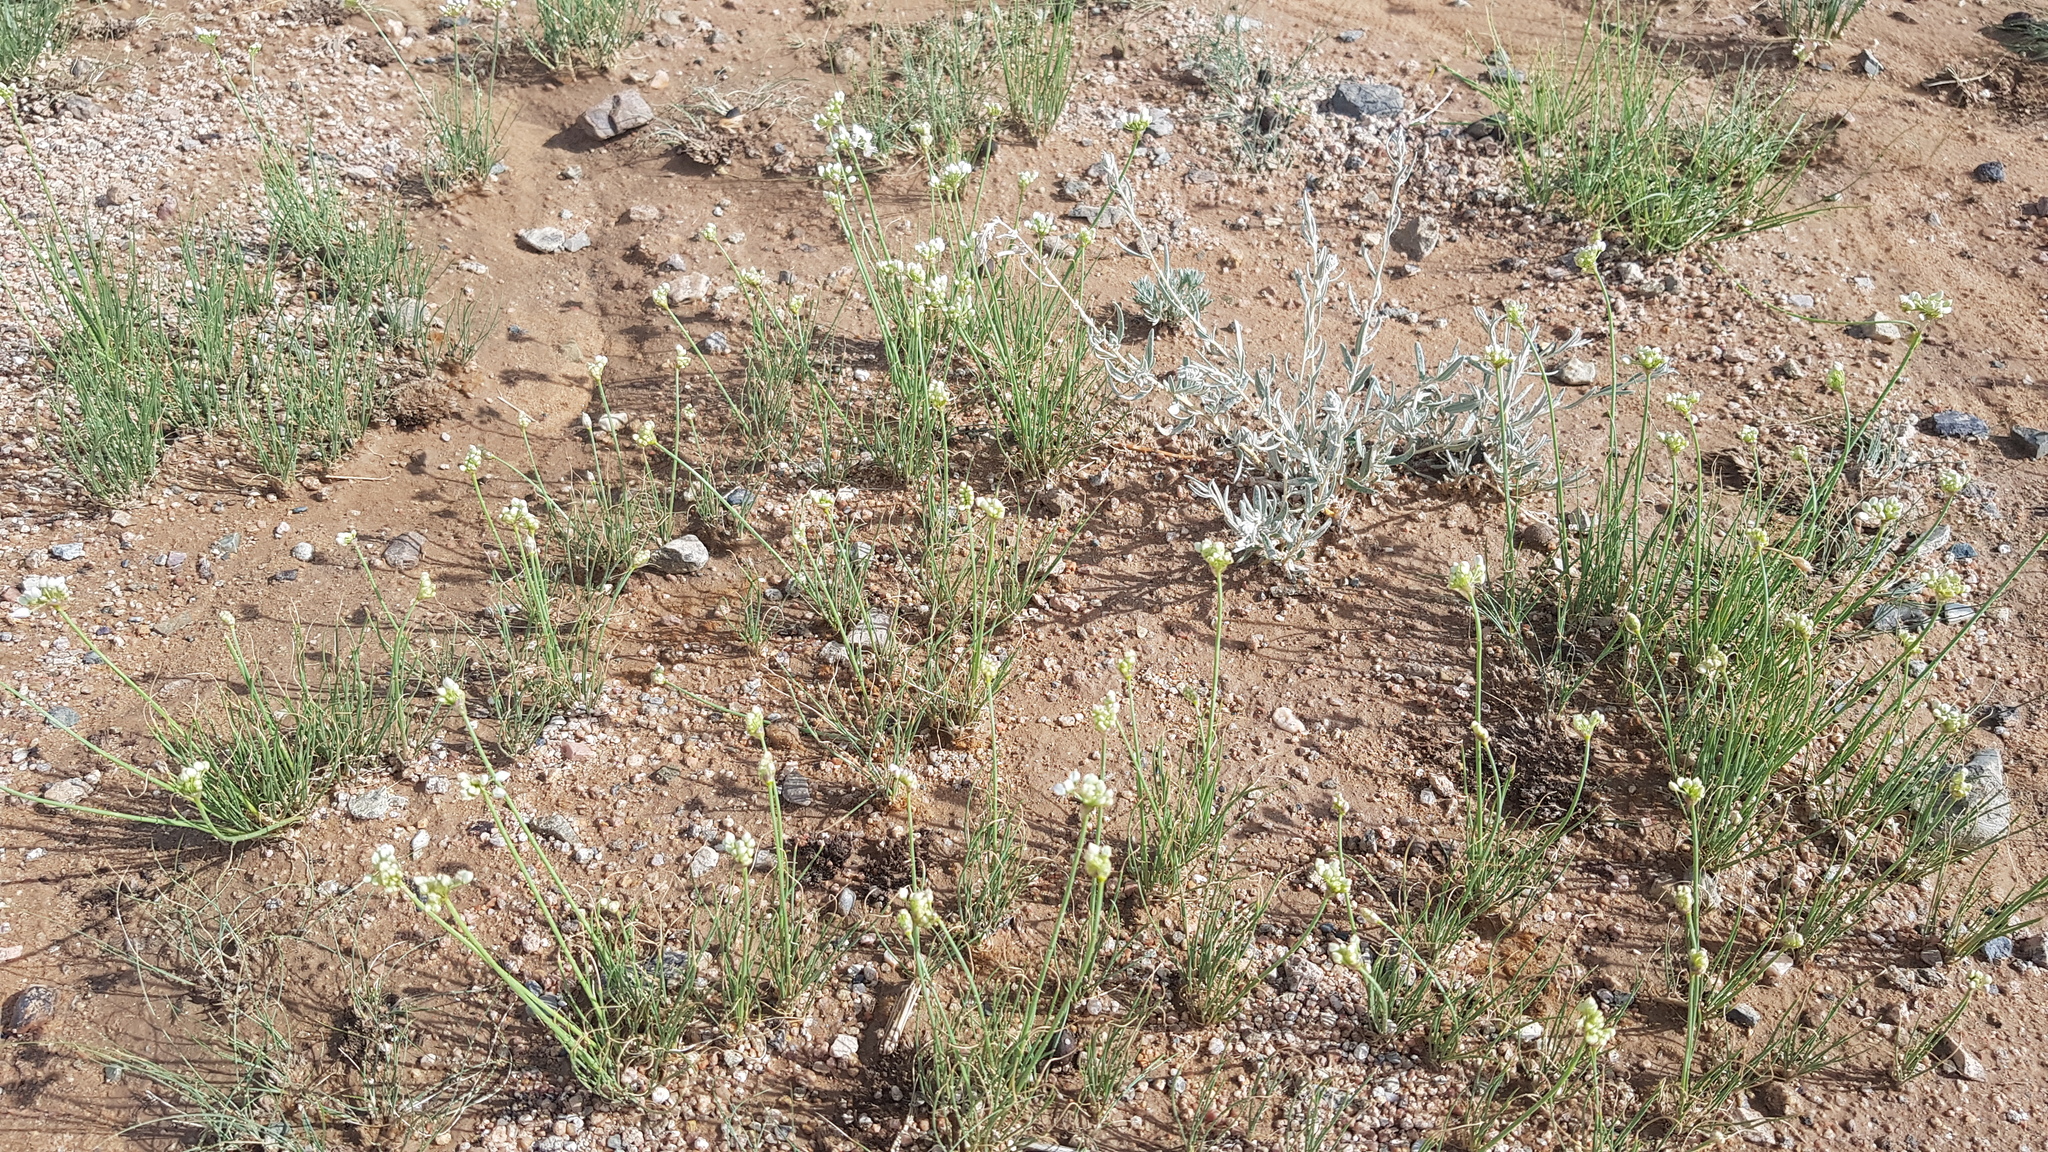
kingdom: Plantae
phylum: Tracheophyta
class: Liliopsida
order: Asparagales
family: Amaryllidaceae
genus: Allium
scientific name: Allium polyrhizum
